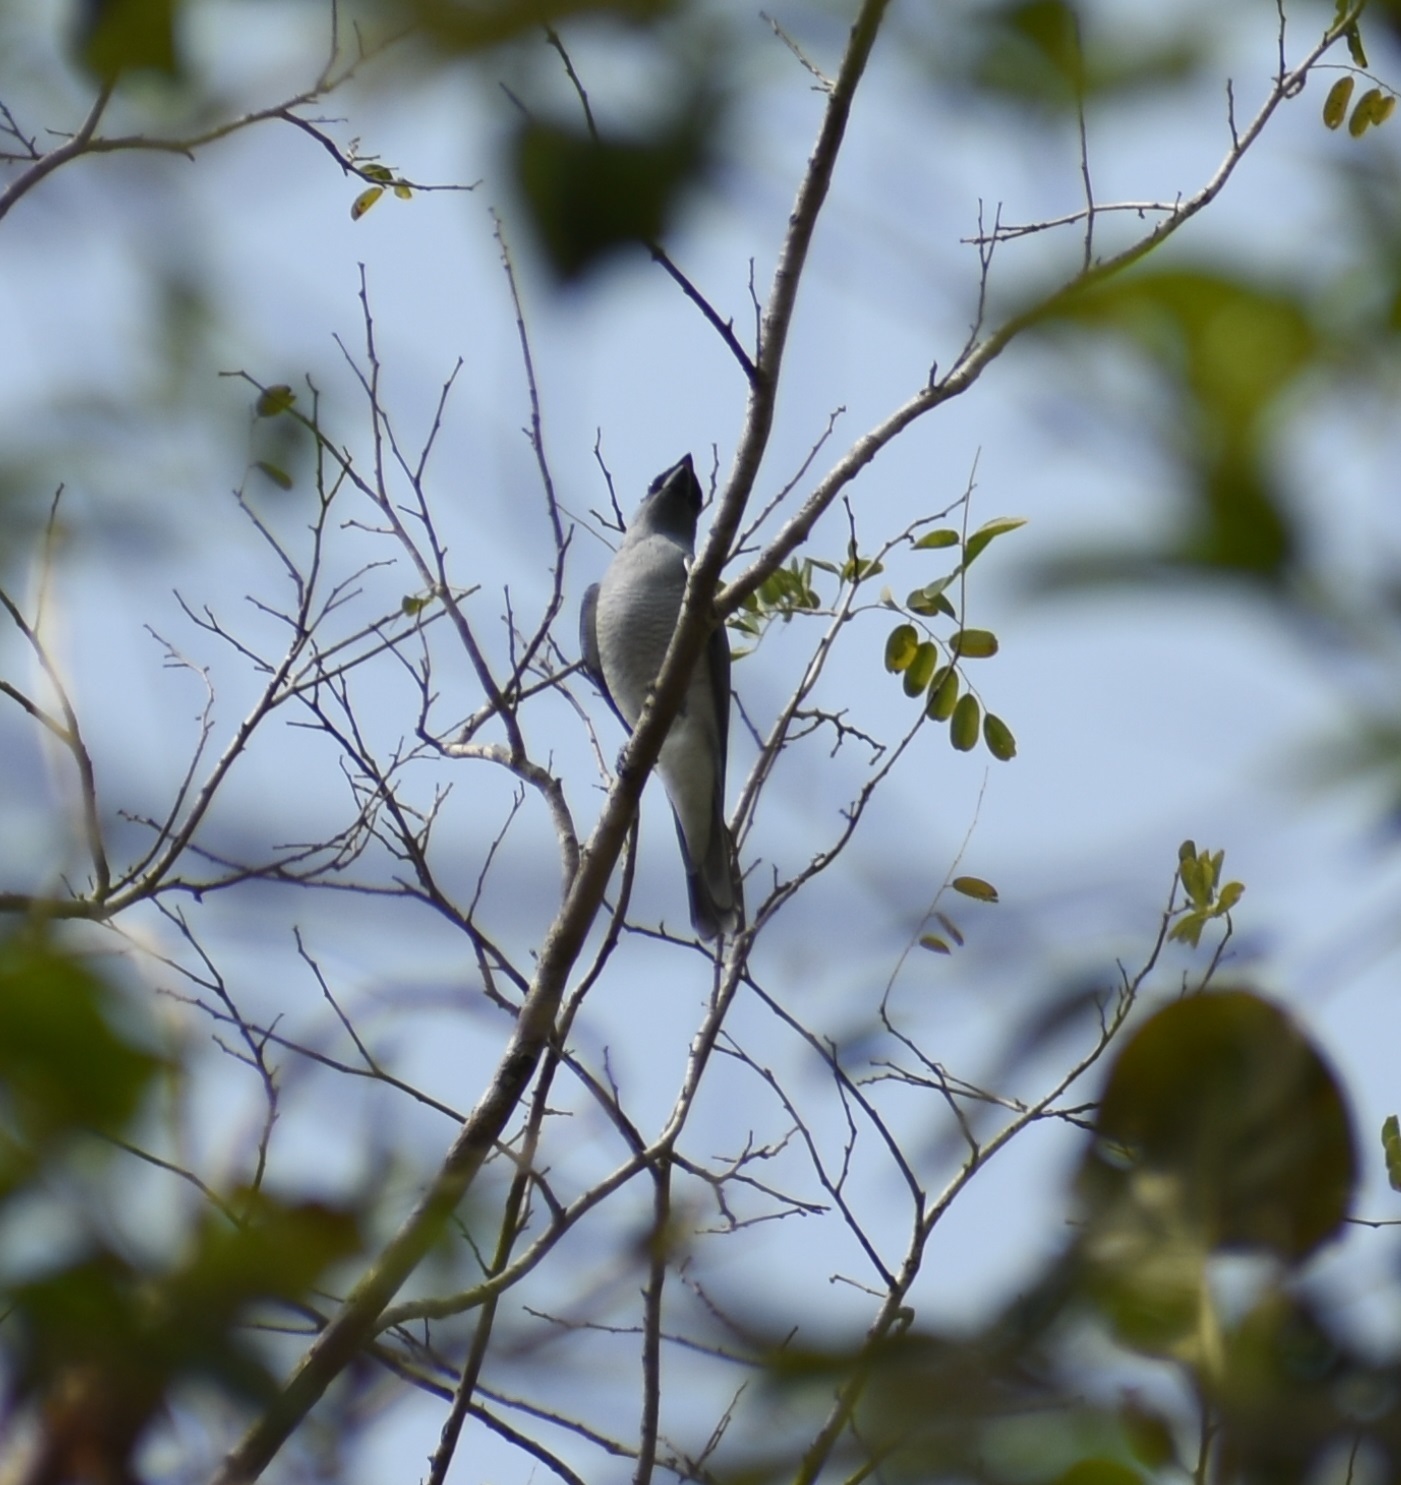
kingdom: Animalia
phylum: Chordata
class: Aves
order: Passeriformes
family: Campephagidae
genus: Coracina
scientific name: Coracina macei
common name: Large cuckooshrike
